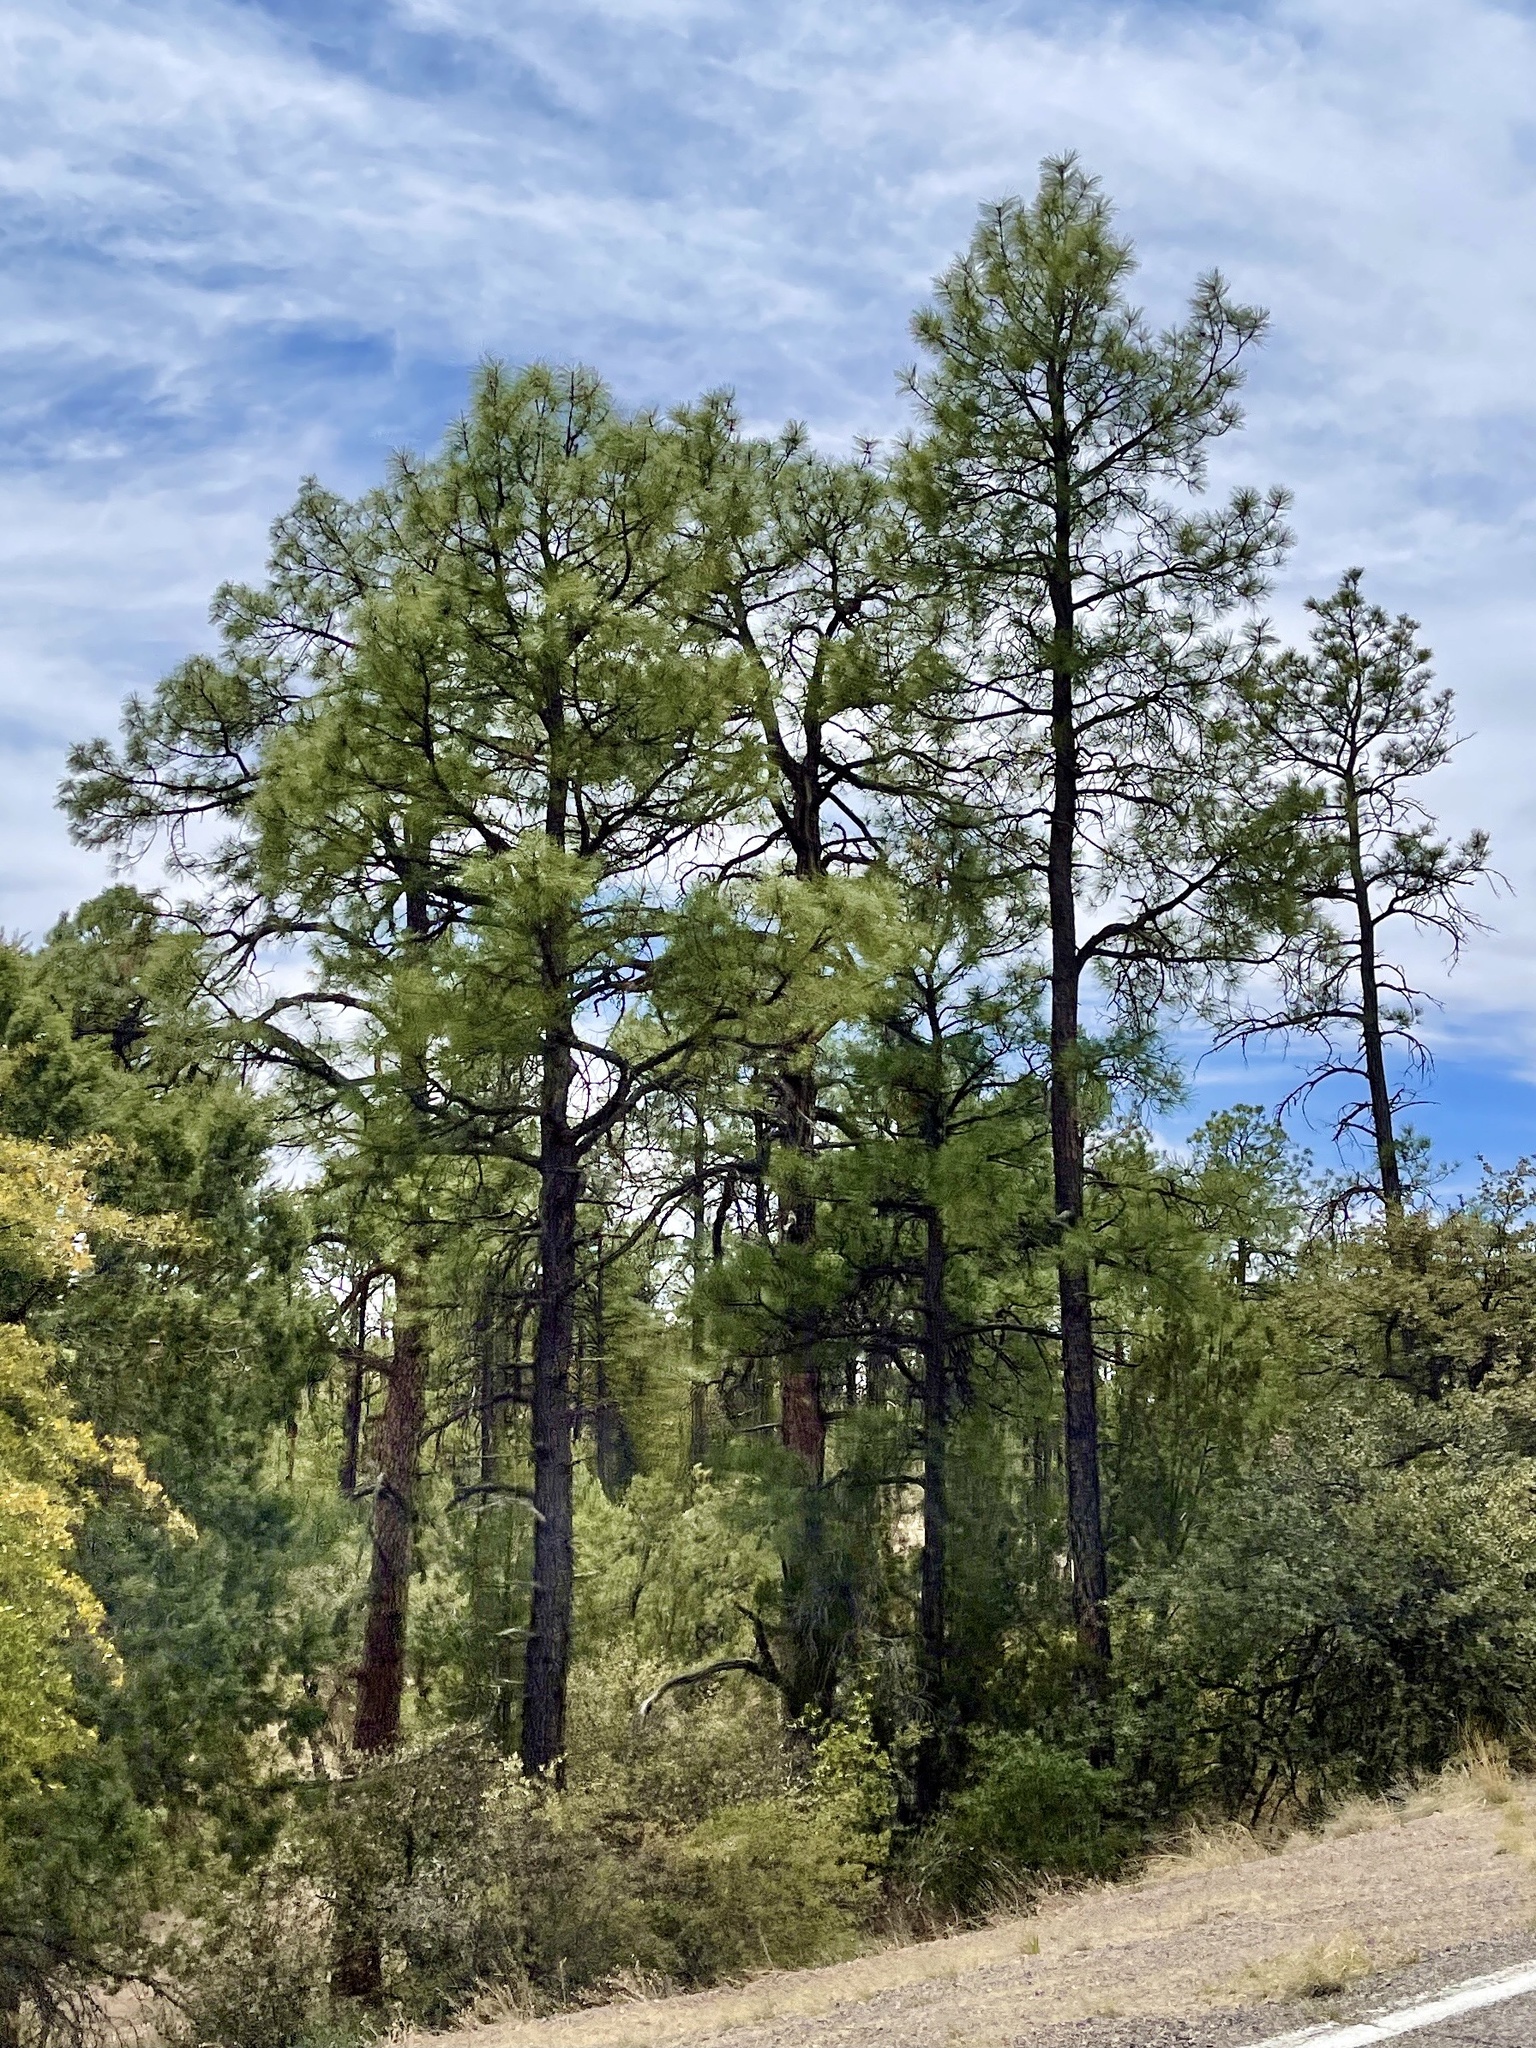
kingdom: Plantae
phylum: Tracheophyta
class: Pinopsida
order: Pinales
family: Pinaceae
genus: Pinus
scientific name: Pinus ponderosa
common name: Western yellow-pine
